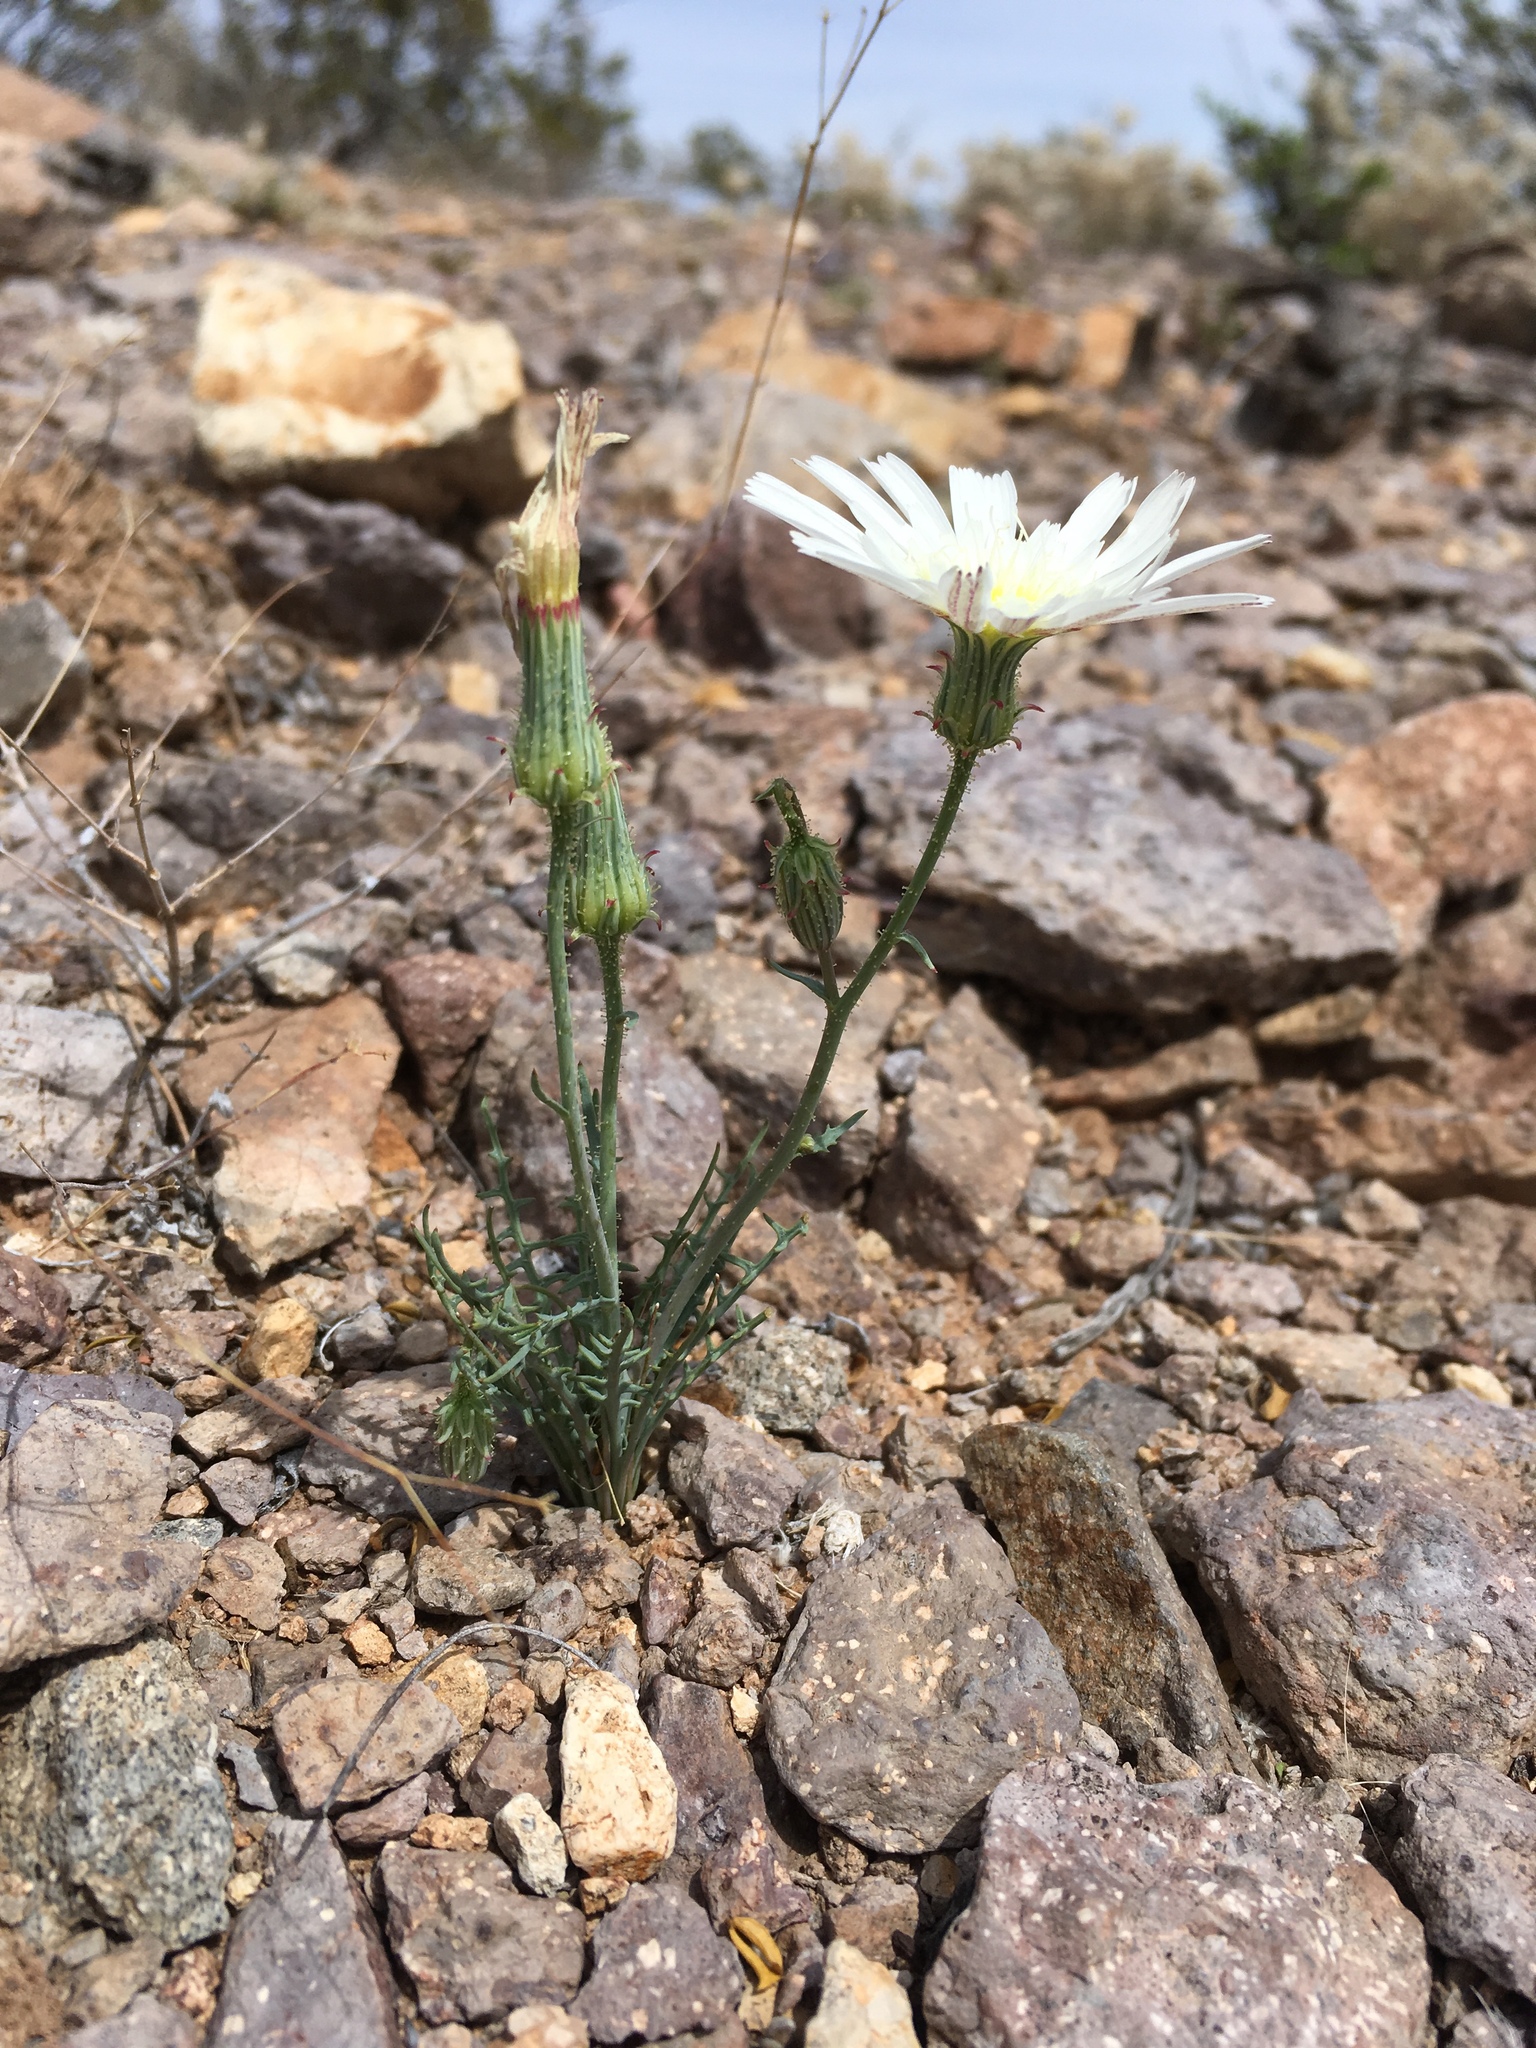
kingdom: Plantae
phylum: Tracheophyta
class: Magnoliopsida
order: Asterales
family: Asteraceae
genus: Calycoseris
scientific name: Calycoseris wrightii
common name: White tackstem
